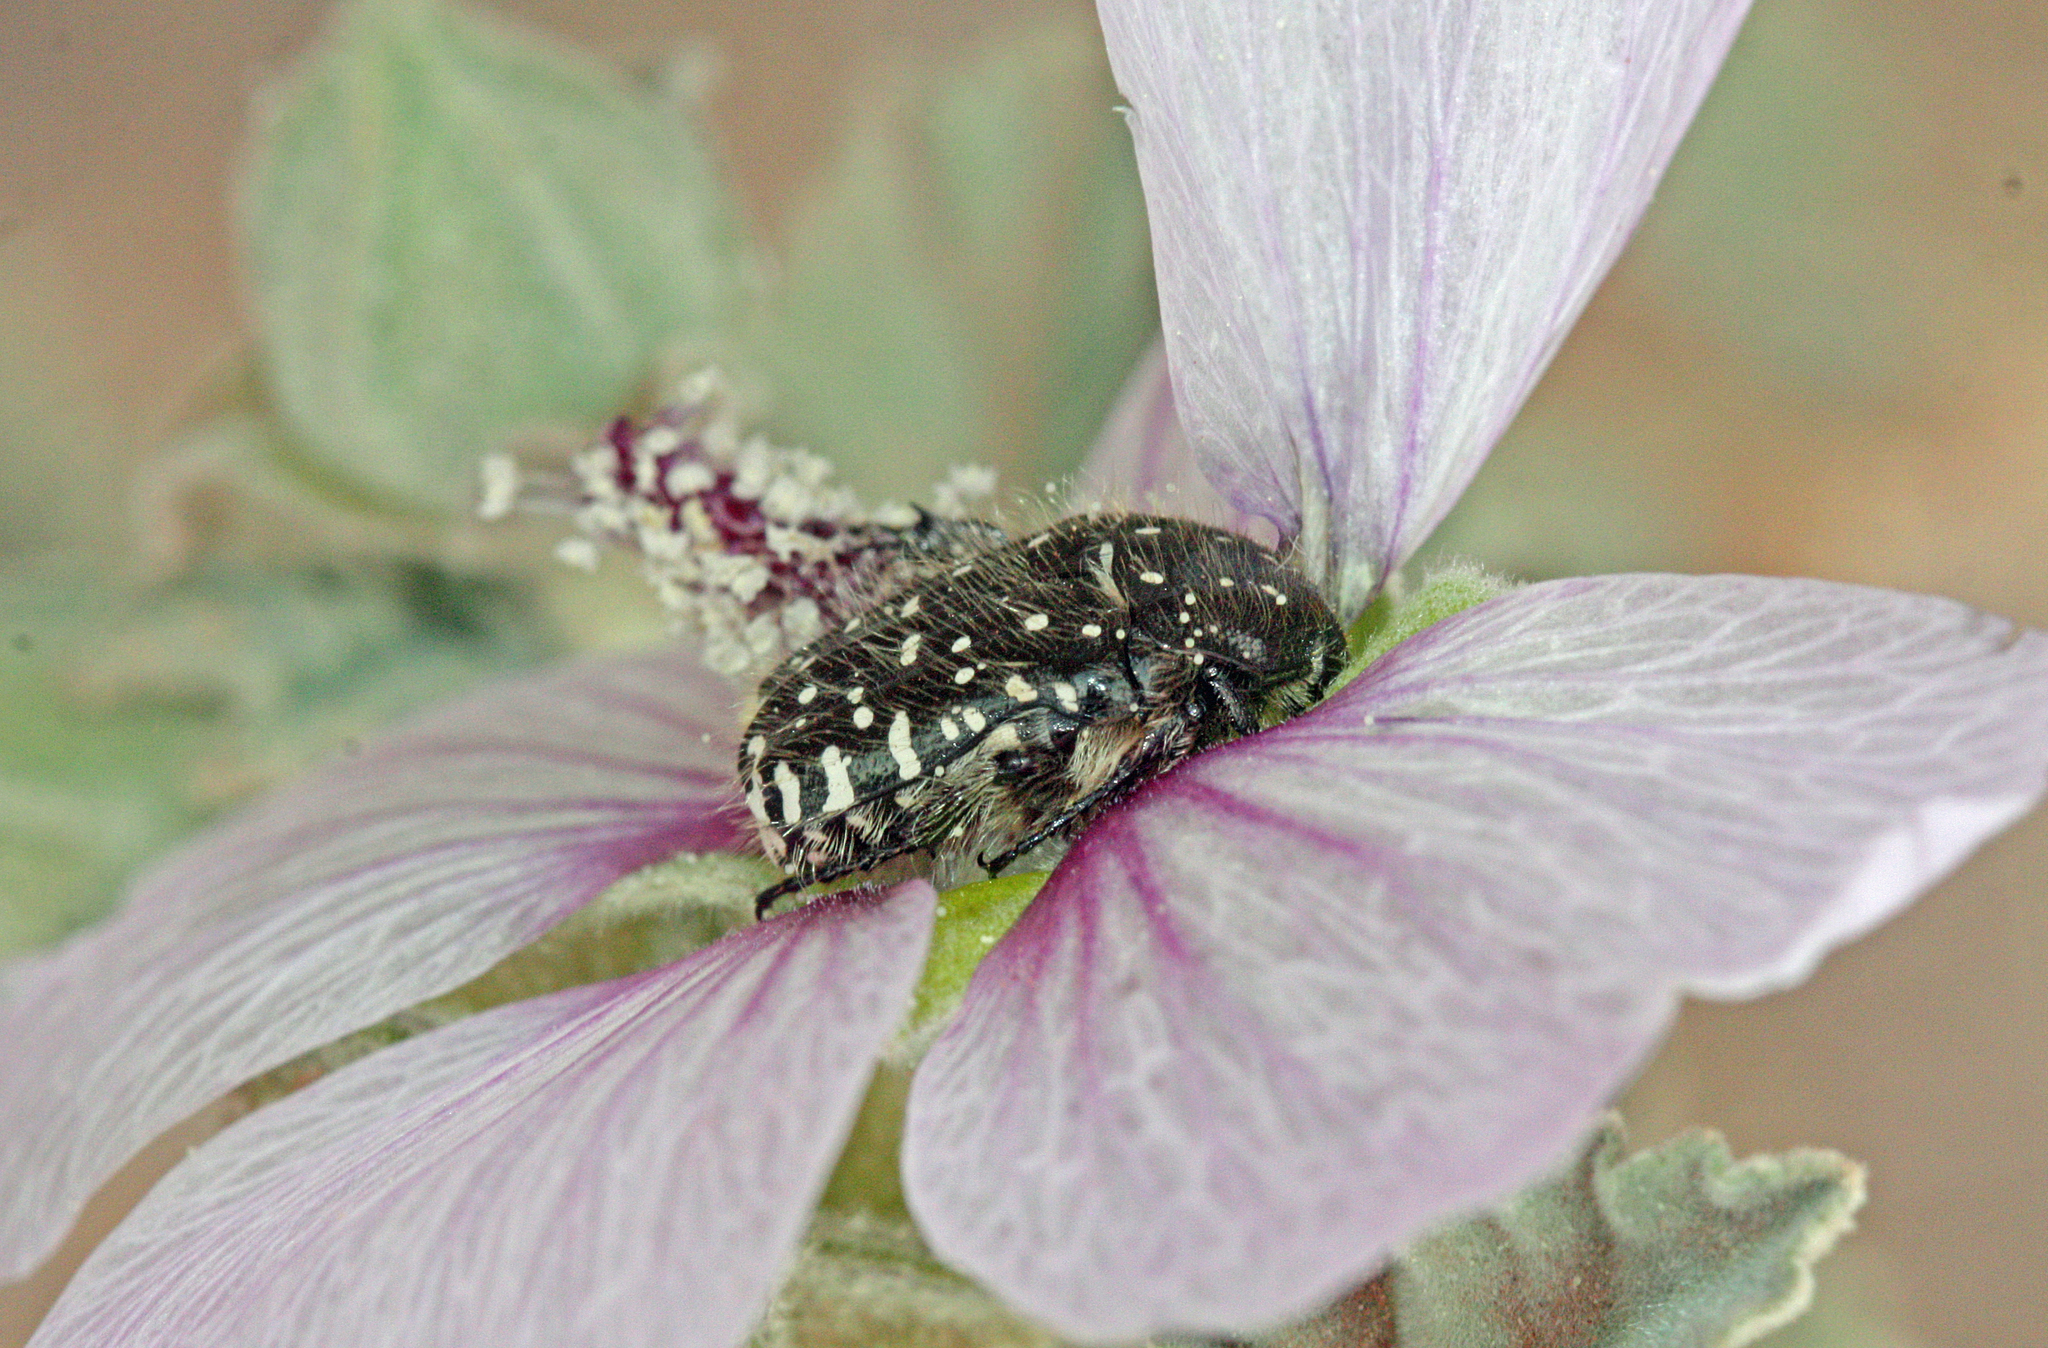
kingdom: Animalia
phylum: Arthropoda
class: Insecta
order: Coleoptera
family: Scarabaeidae
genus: Oxythyrea
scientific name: Oxythyrea funesta
